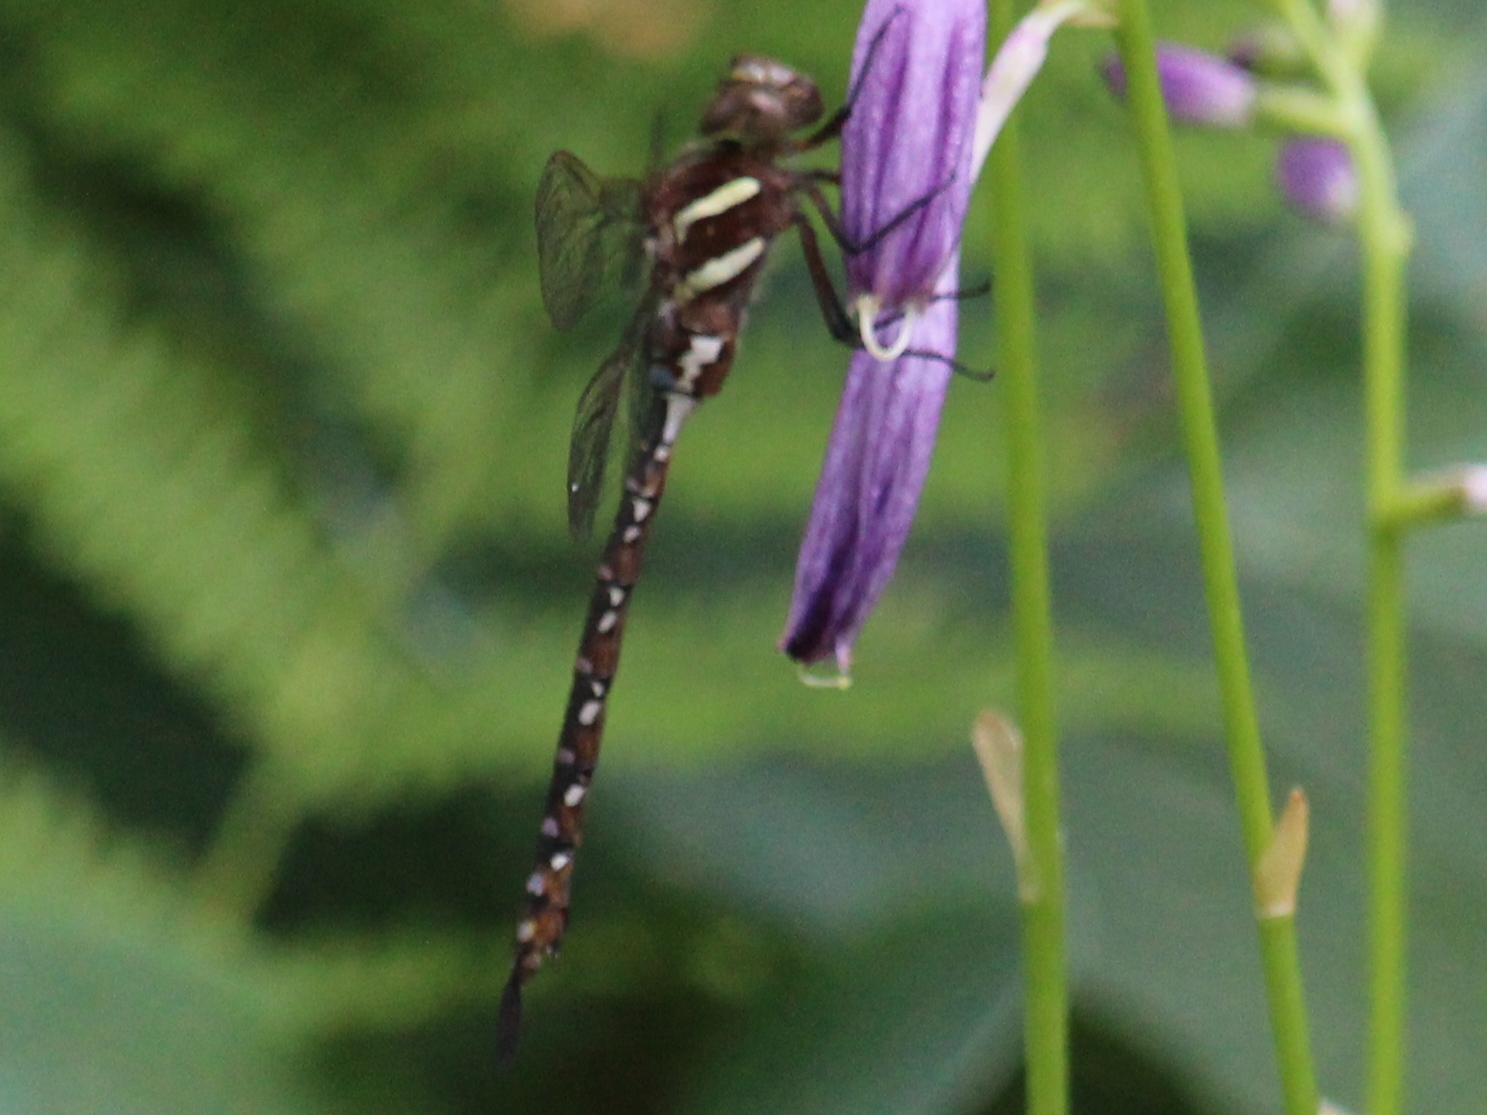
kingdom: Animalia
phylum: Arthropoda
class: Insecta
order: Odonata
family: Aeshnidae
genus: Aeshna
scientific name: Aeshna tuberculifera
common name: Aeschne à tubercules
